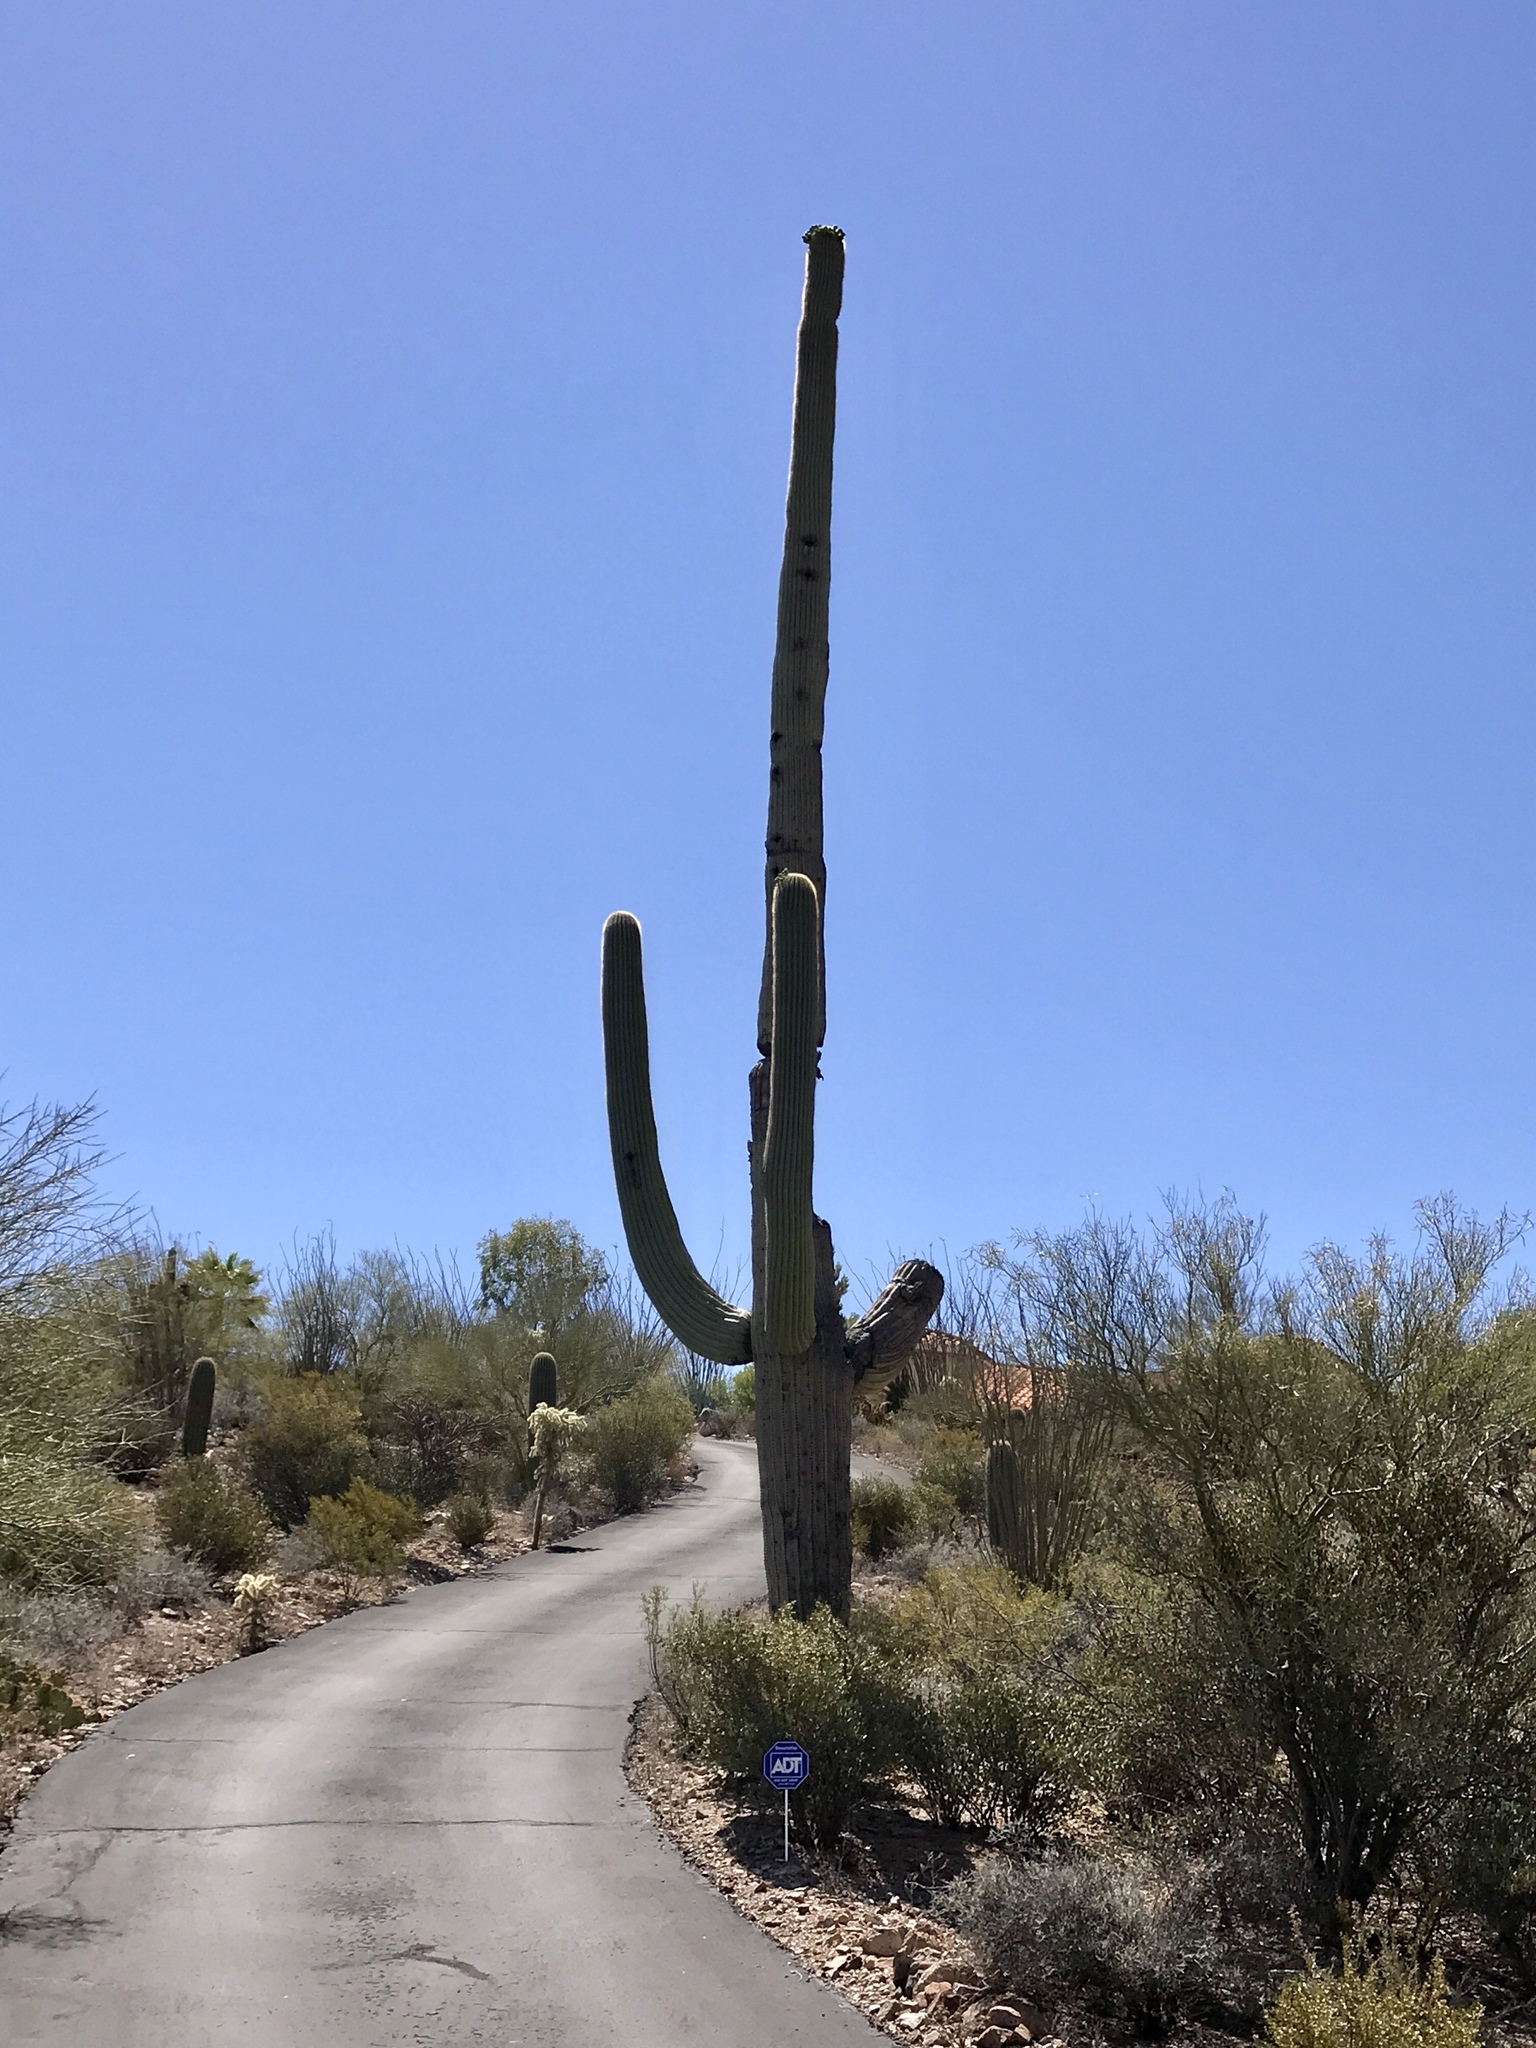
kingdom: Plantae
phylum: Tracheophyta
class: Magnoliopsida
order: Caryophyllales
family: Cactaceae
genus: Carnegiea
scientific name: Carnegiea gigantea
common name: Saguaro
